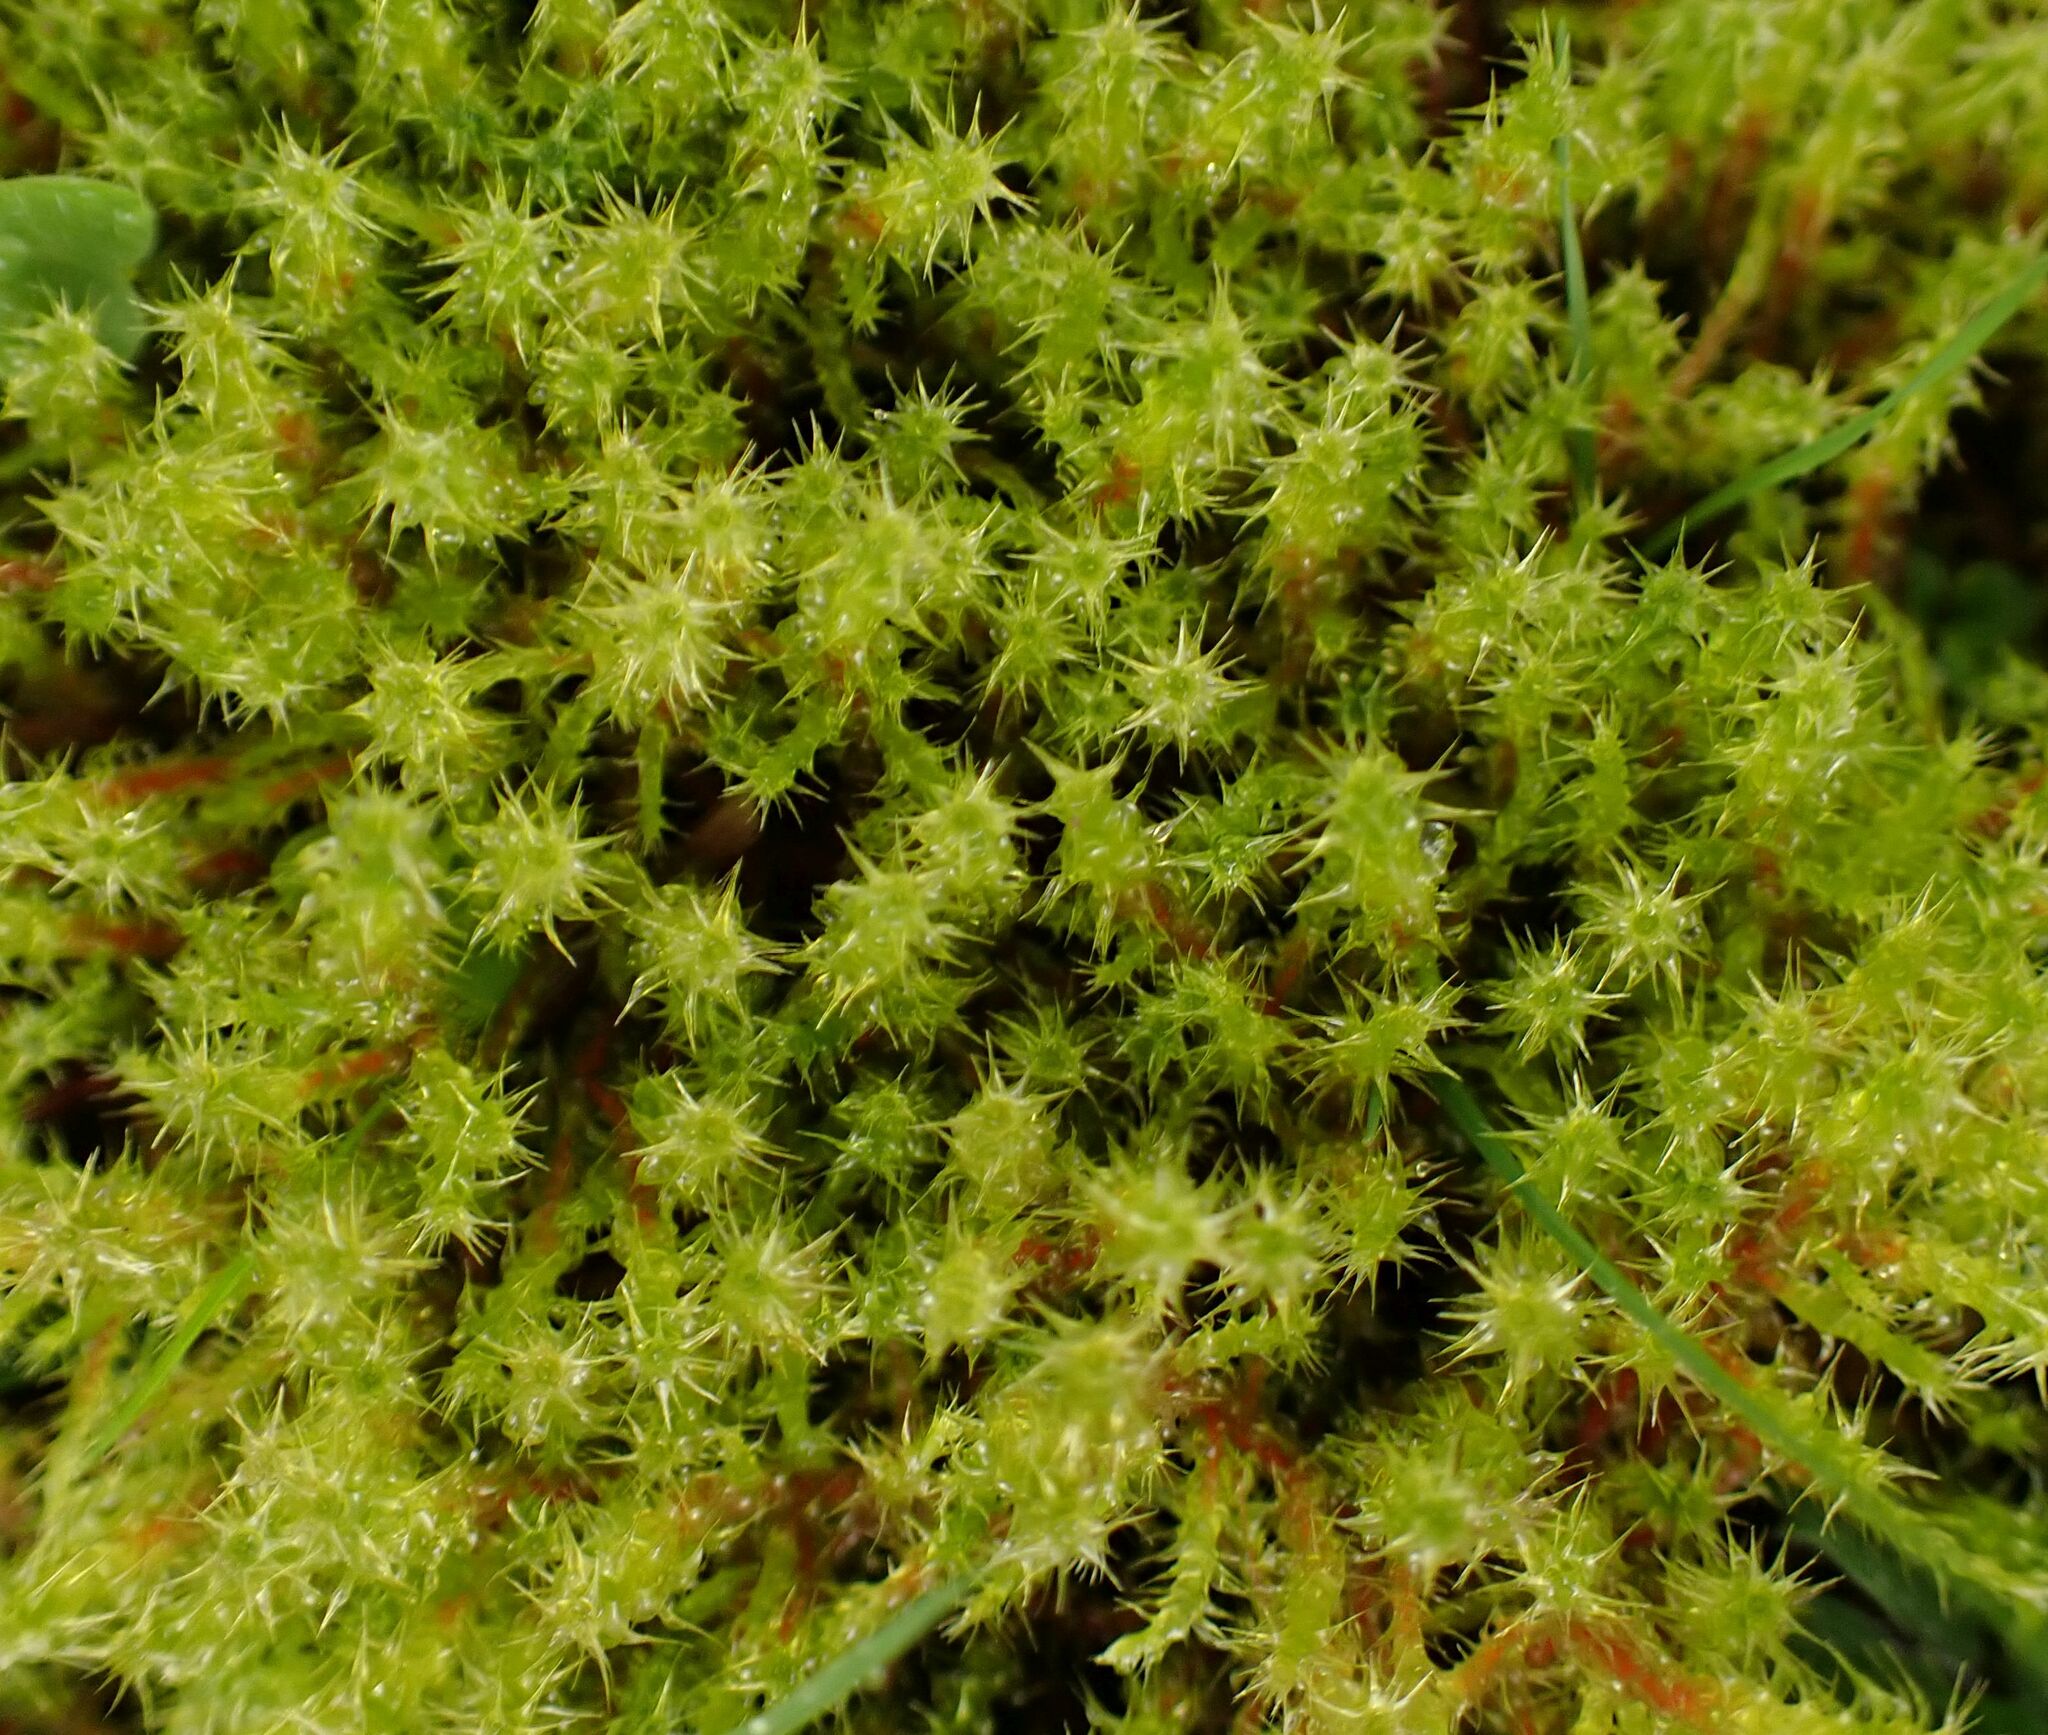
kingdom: Plantae
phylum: Bryophyta
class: Bryopsida
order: Hypnales
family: Hylocomiaceae
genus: Rhytidiadelphus
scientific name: Rhytidiadelphus squarrosus
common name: Springy turf-moss
